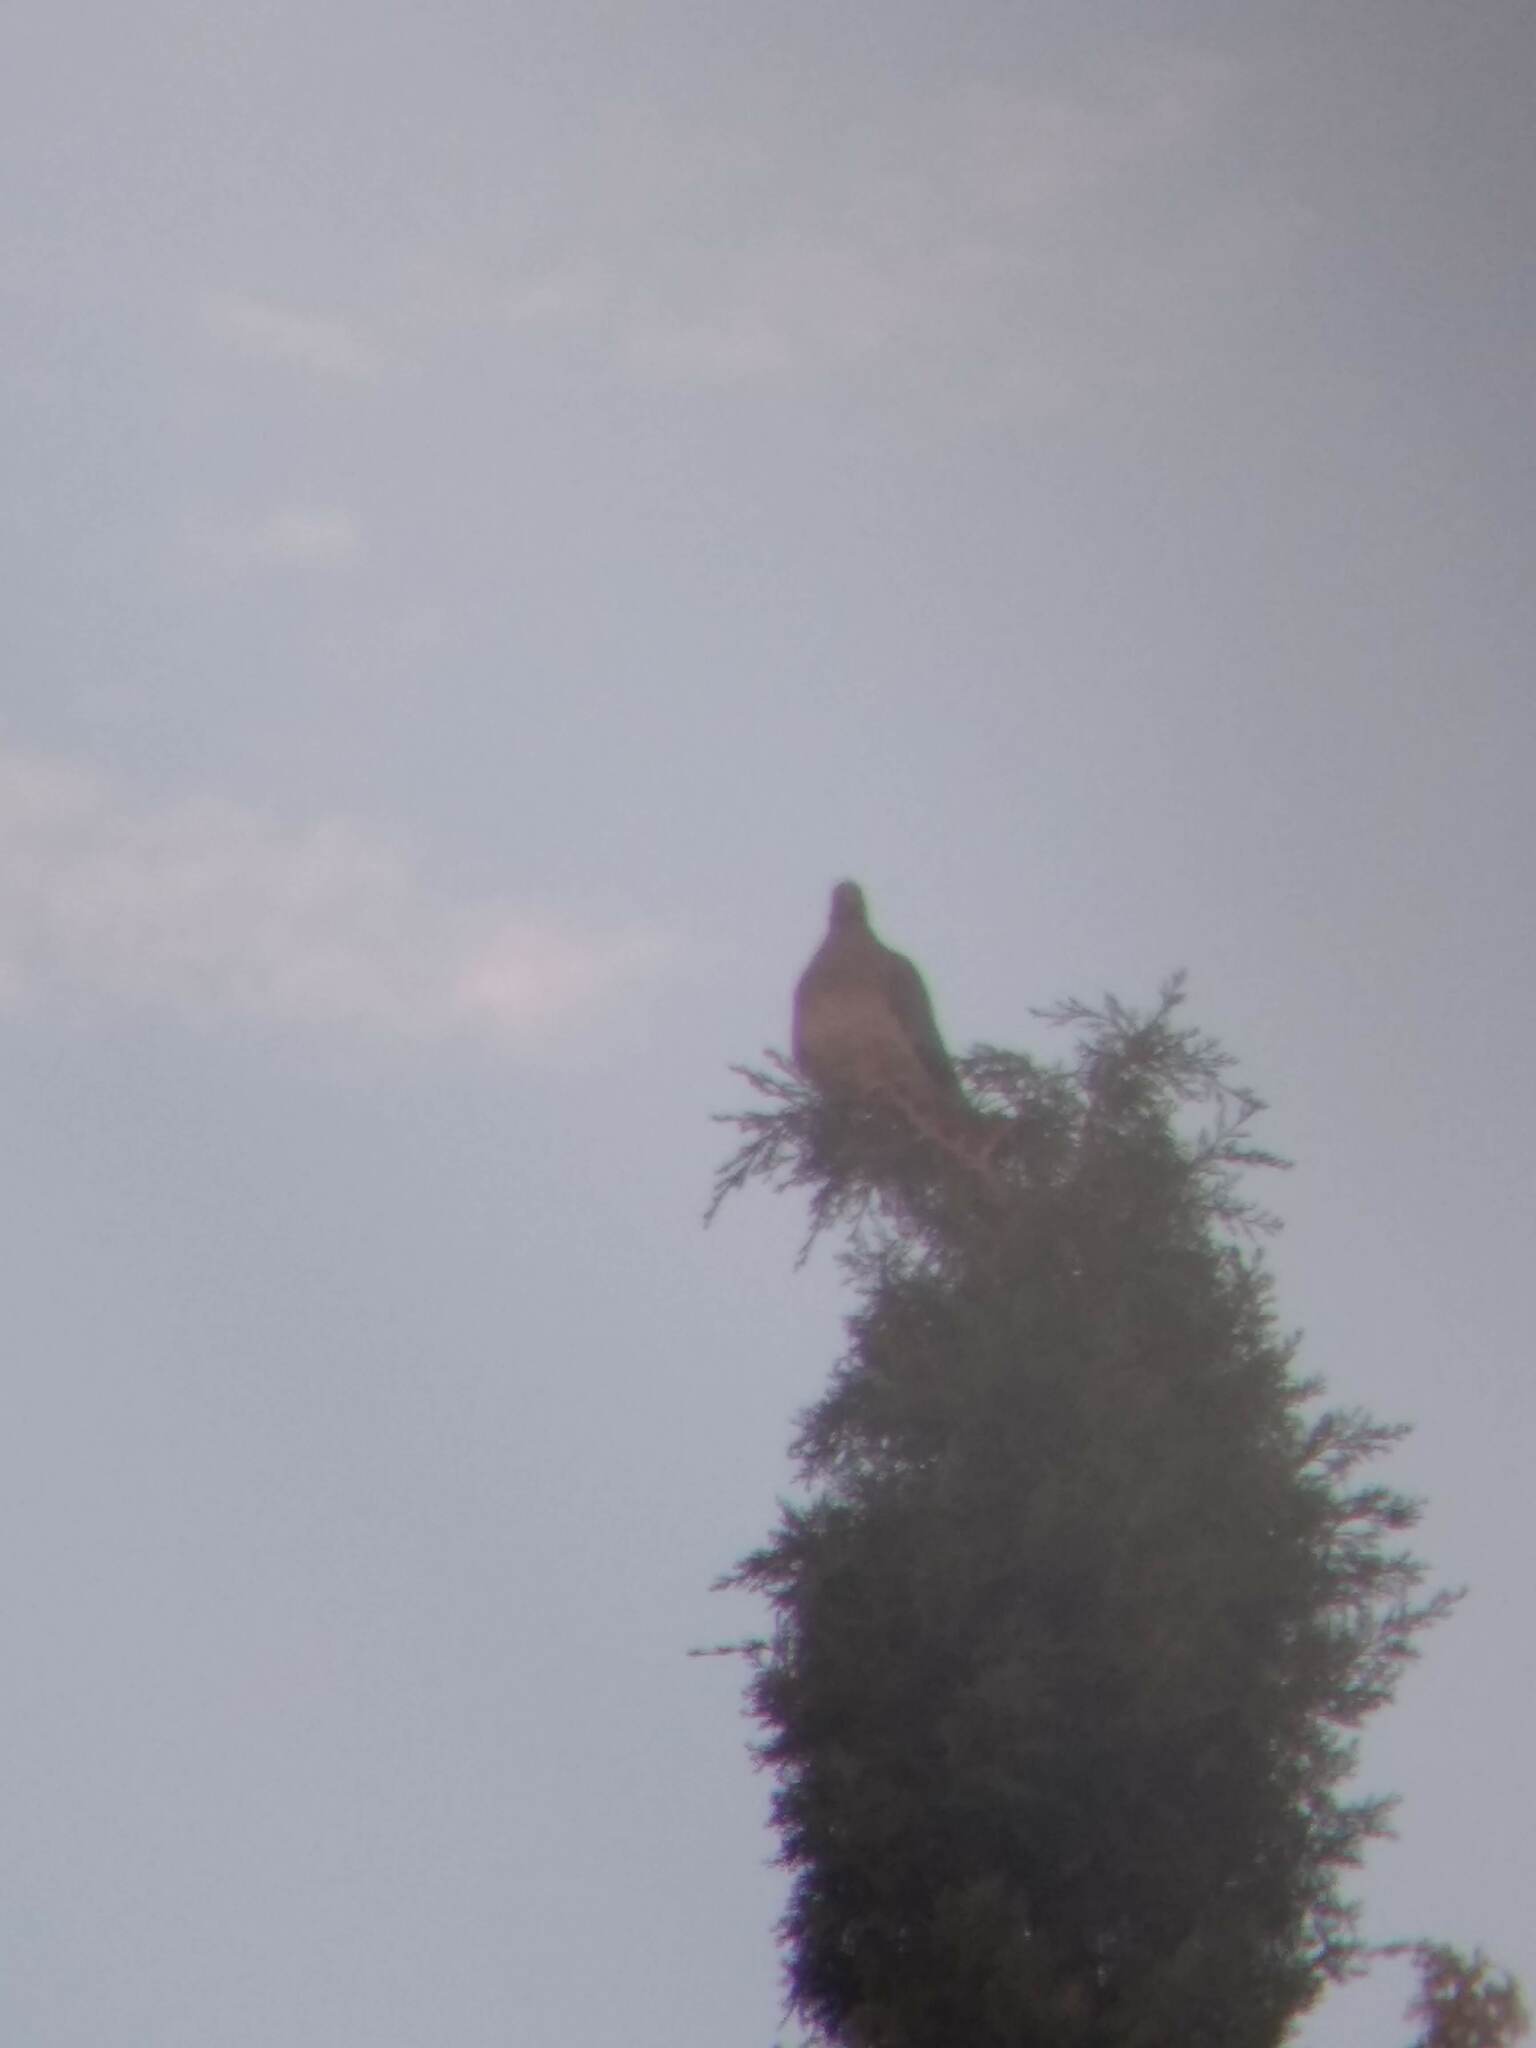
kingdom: Animalia
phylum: Chordata
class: Aves
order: Columbiformes
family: Columbidae
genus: Patagioenas
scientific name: Patagioenas fasciata
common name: Band-tailed pigeon
